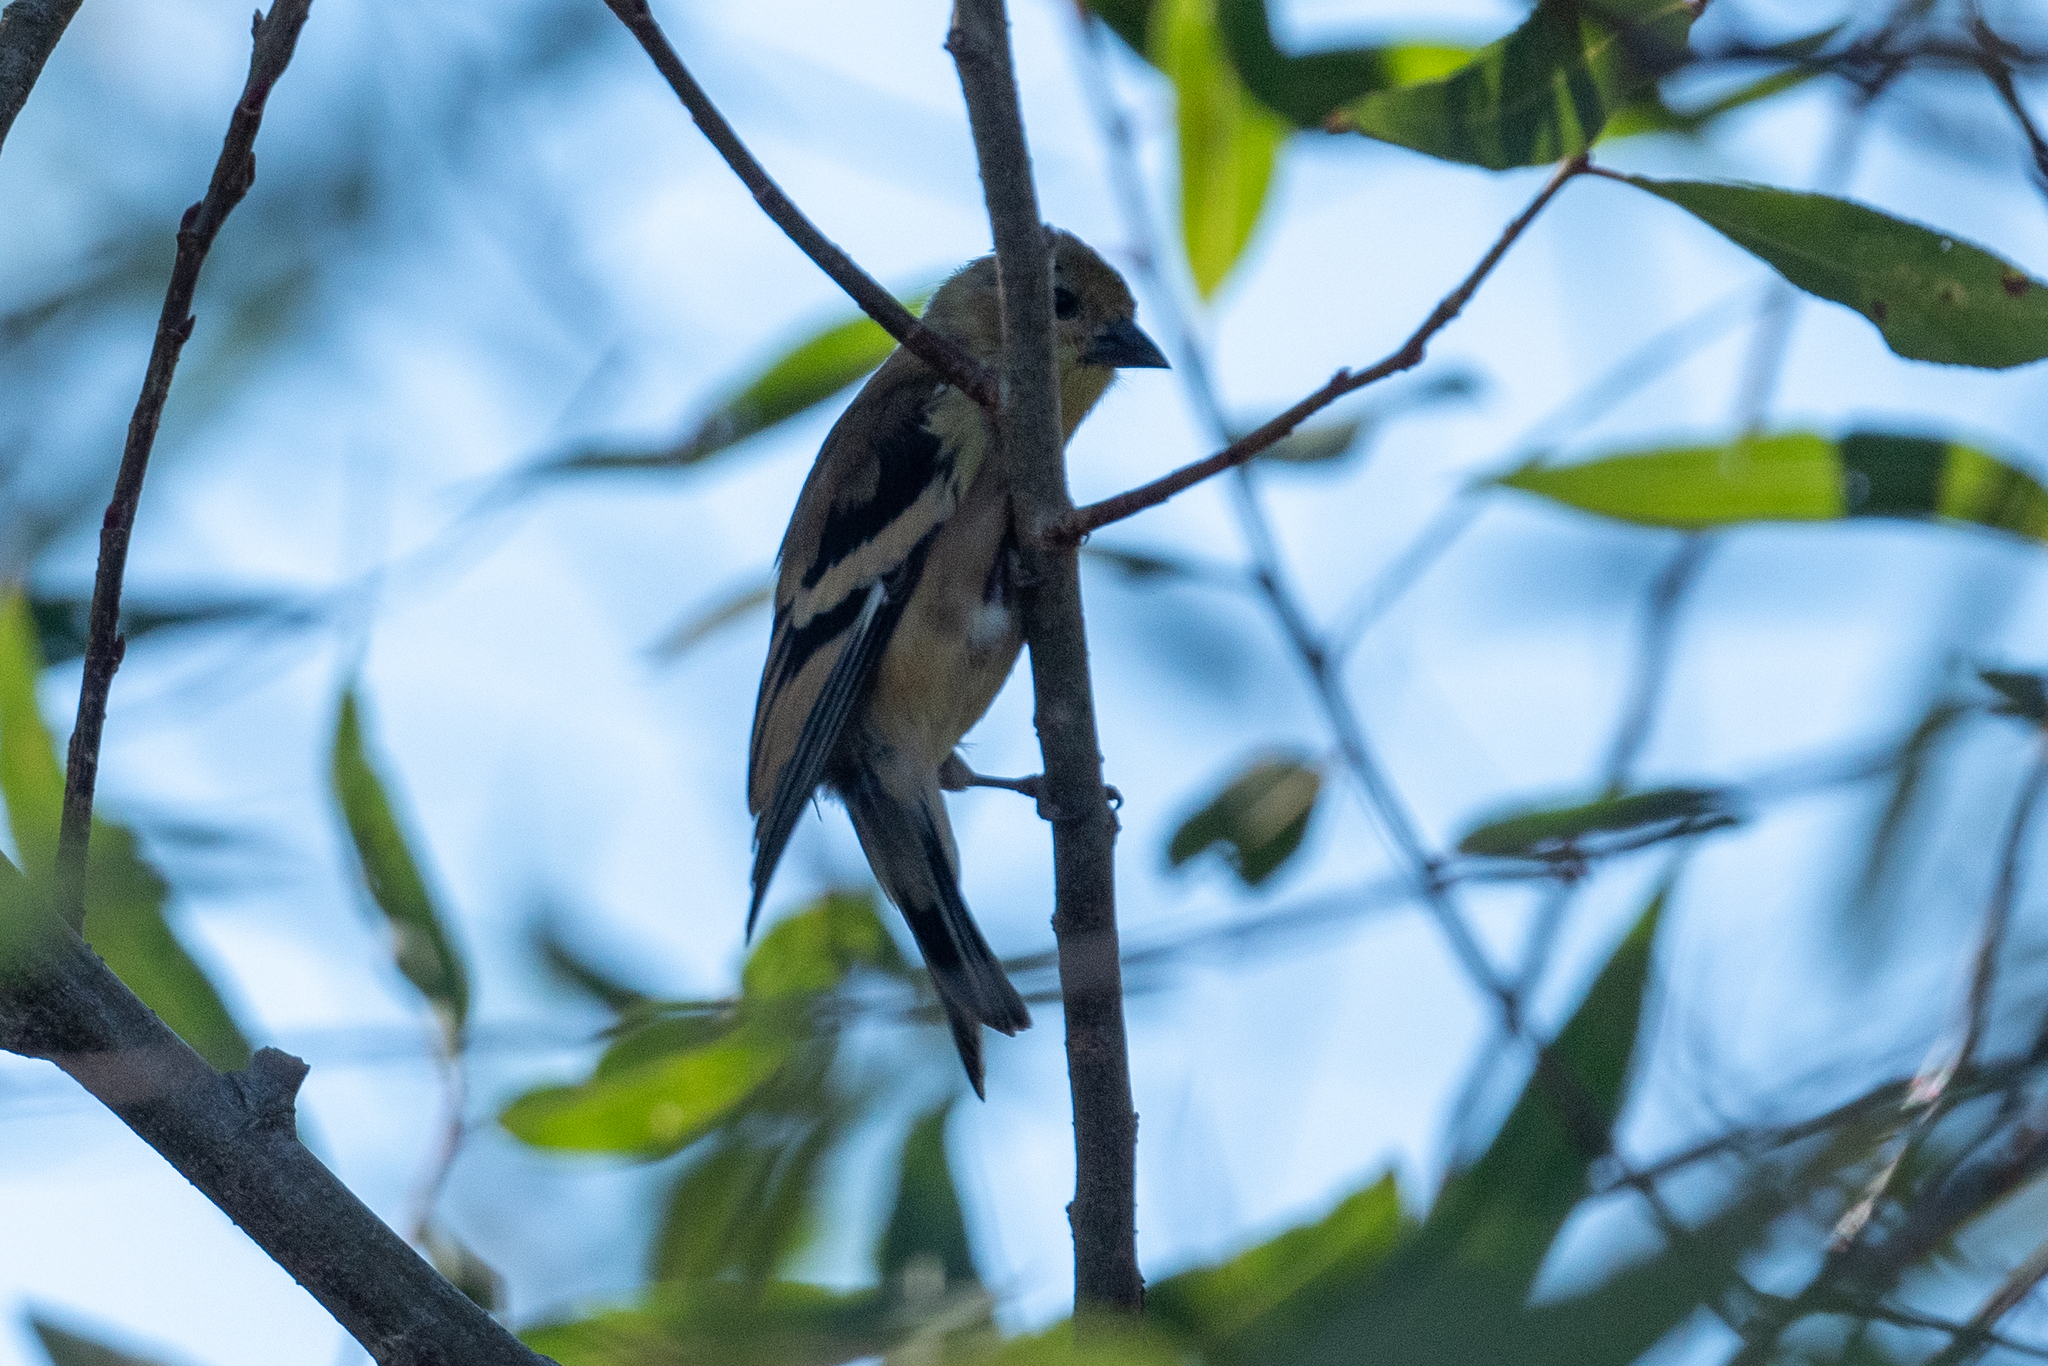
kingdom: Animalia
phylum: Chordata
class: Aves
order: Passeriformes
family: Fringillidae
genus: Spinus
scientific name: Spinus tristis
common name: American goldfinch
